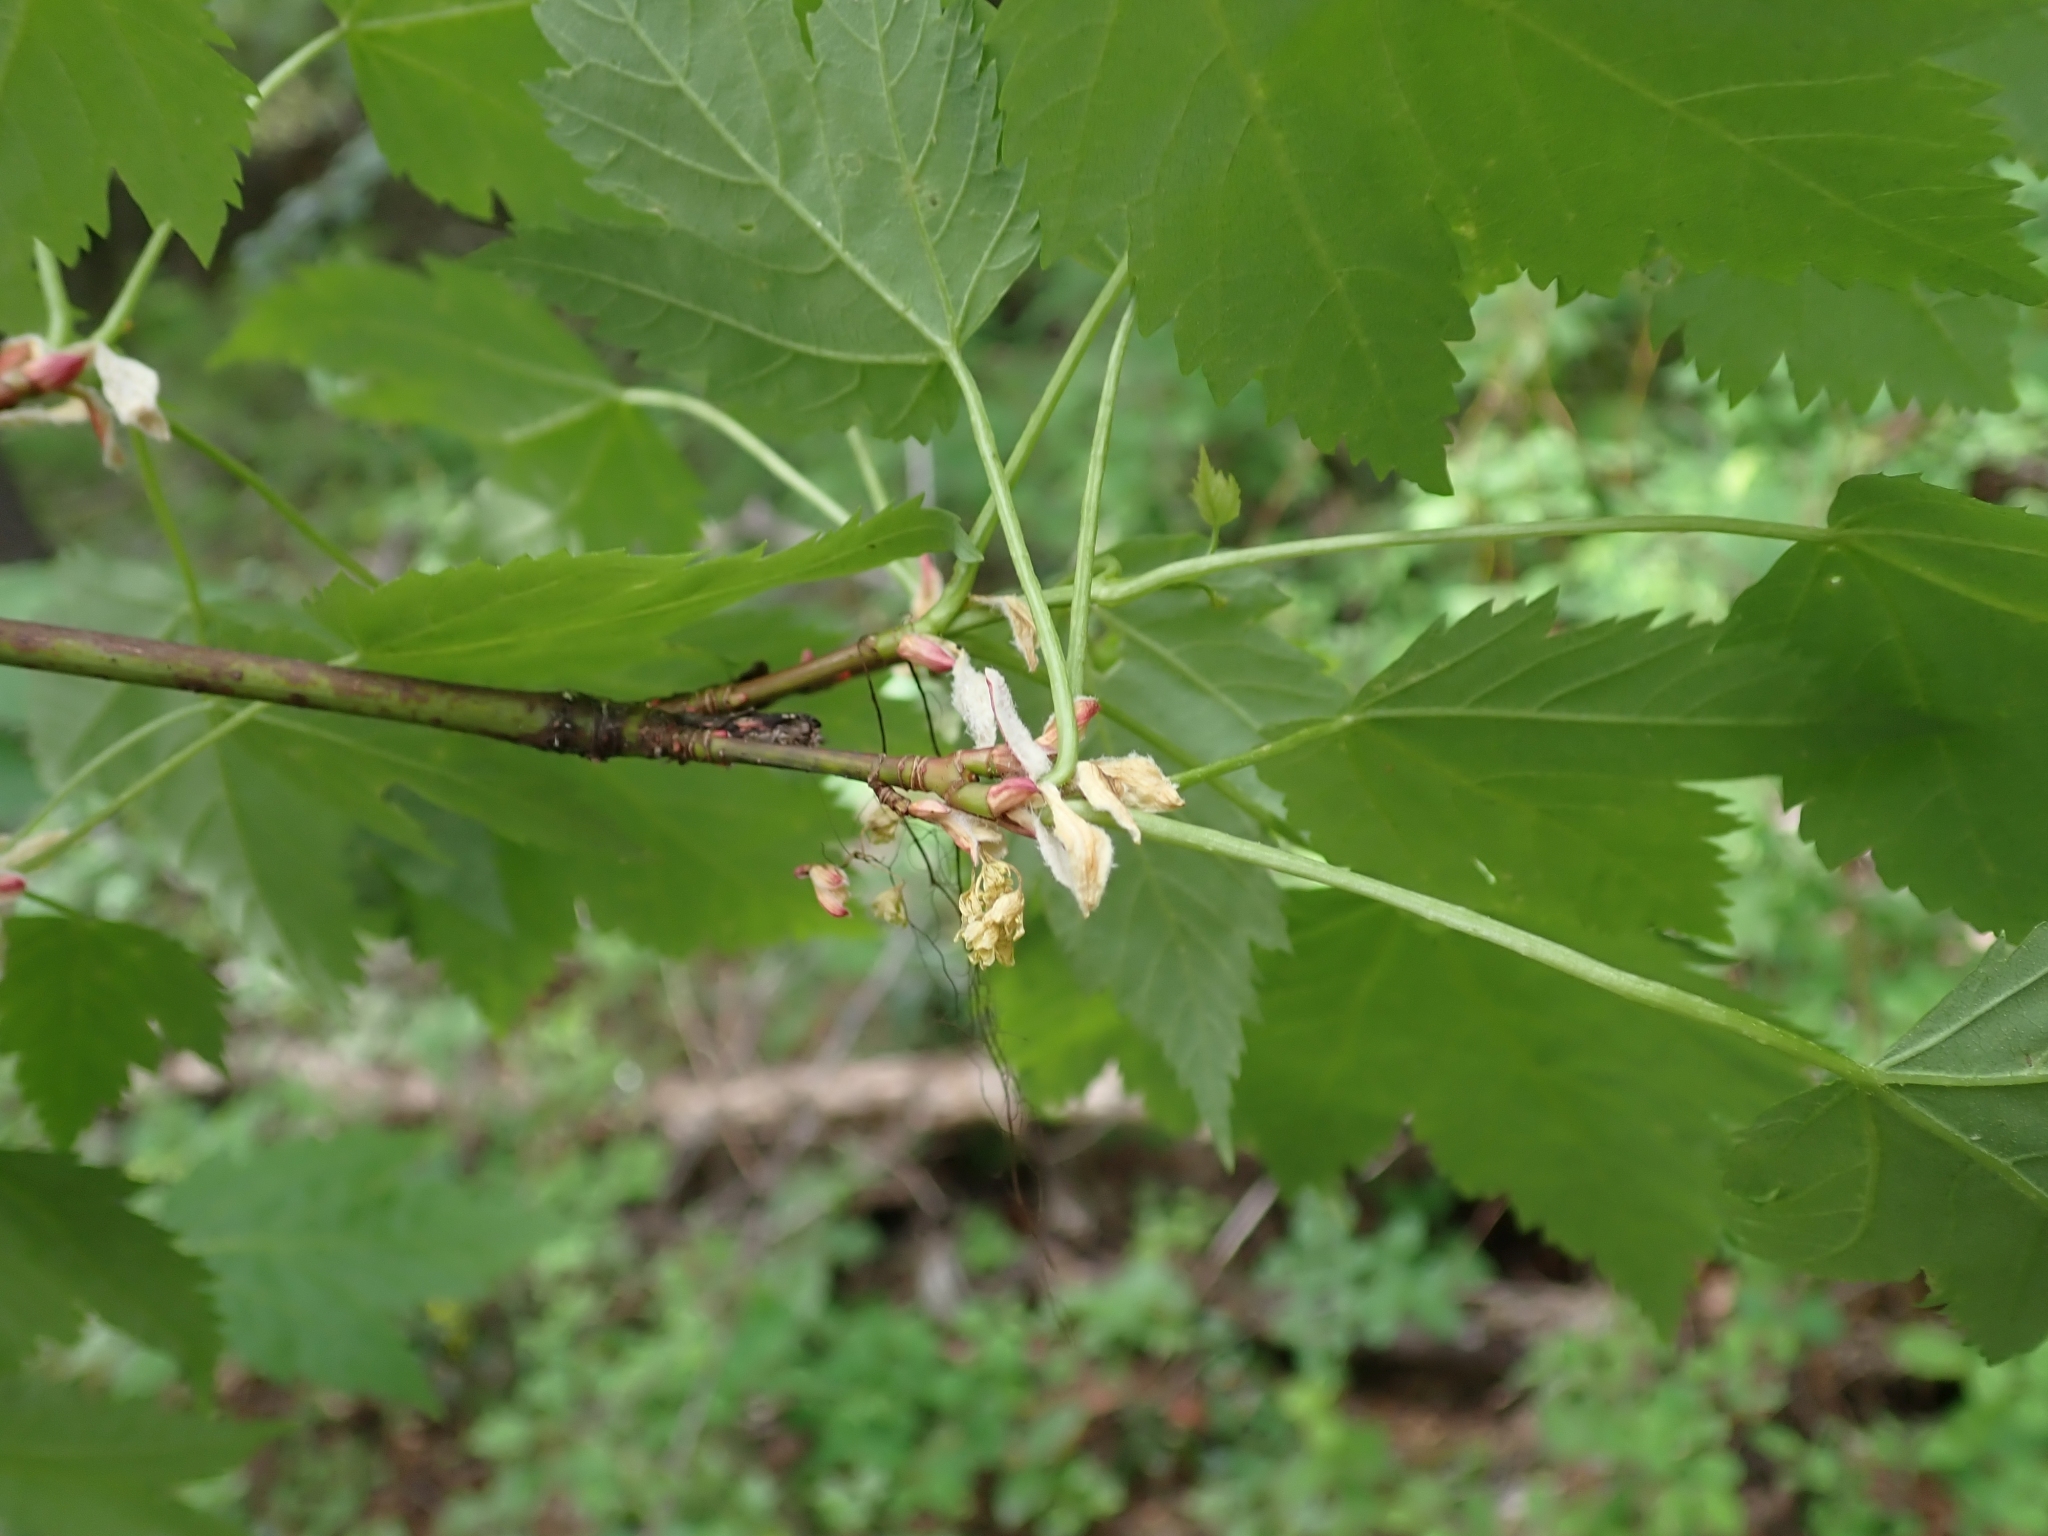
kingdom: Plantae
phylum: Tracheophyta
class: Magnoliopsida
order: Sapindales
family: Sapindaceae
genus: Acer
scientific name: Acer glabrum
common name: Rocky mountain maple
